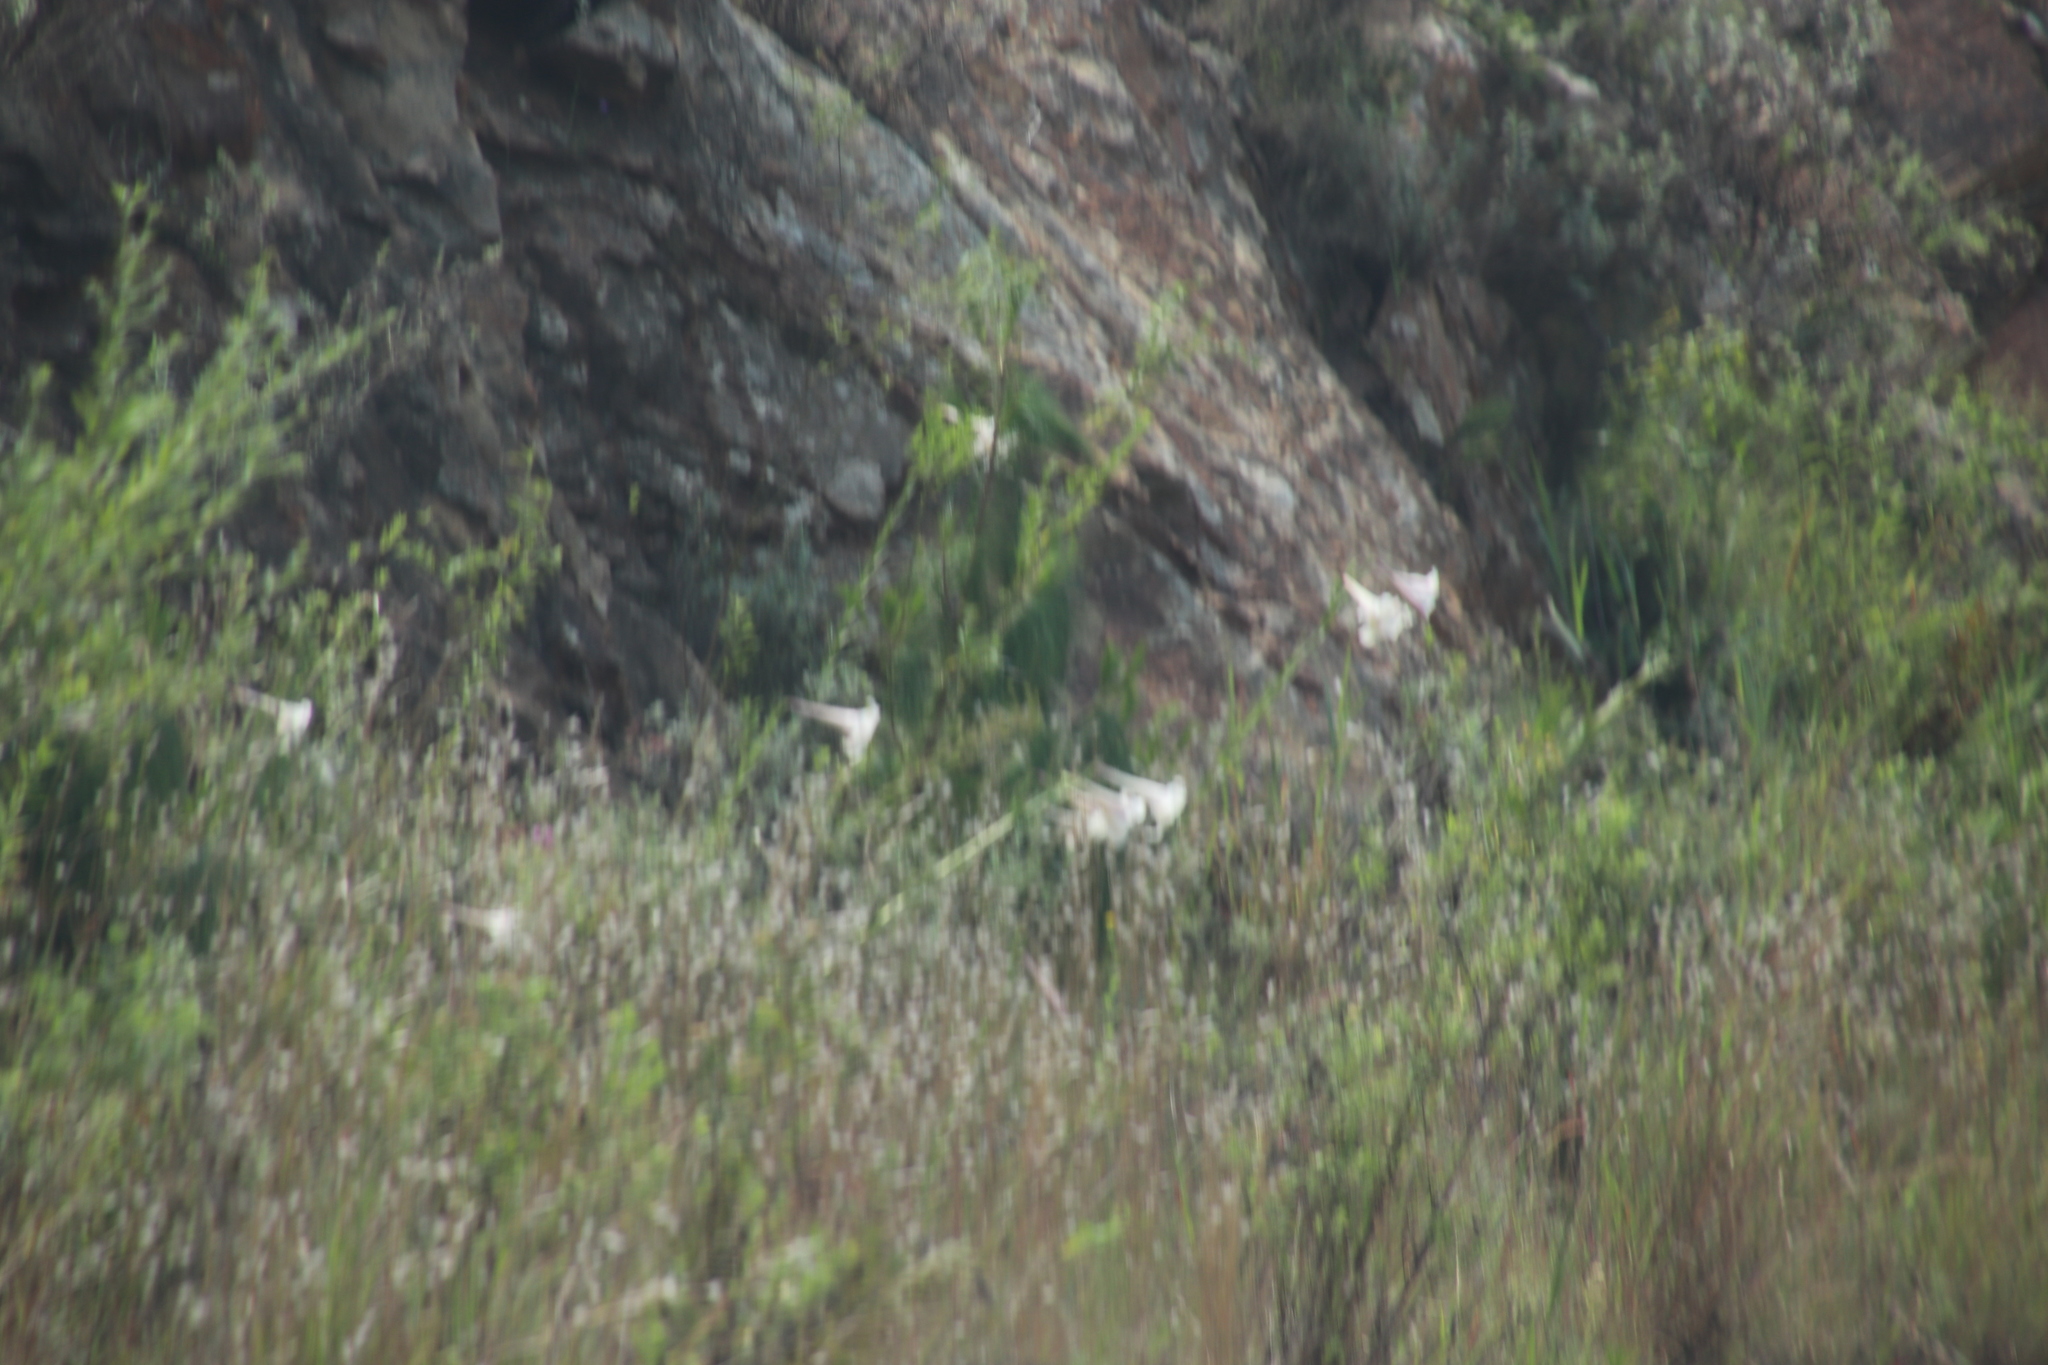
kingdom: Plantae
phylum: Tracheophyta
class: Liliopsida
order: Liliales
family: Liliaceae
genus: Lilium
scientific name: Lilium formosanum
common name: Formosa lily
